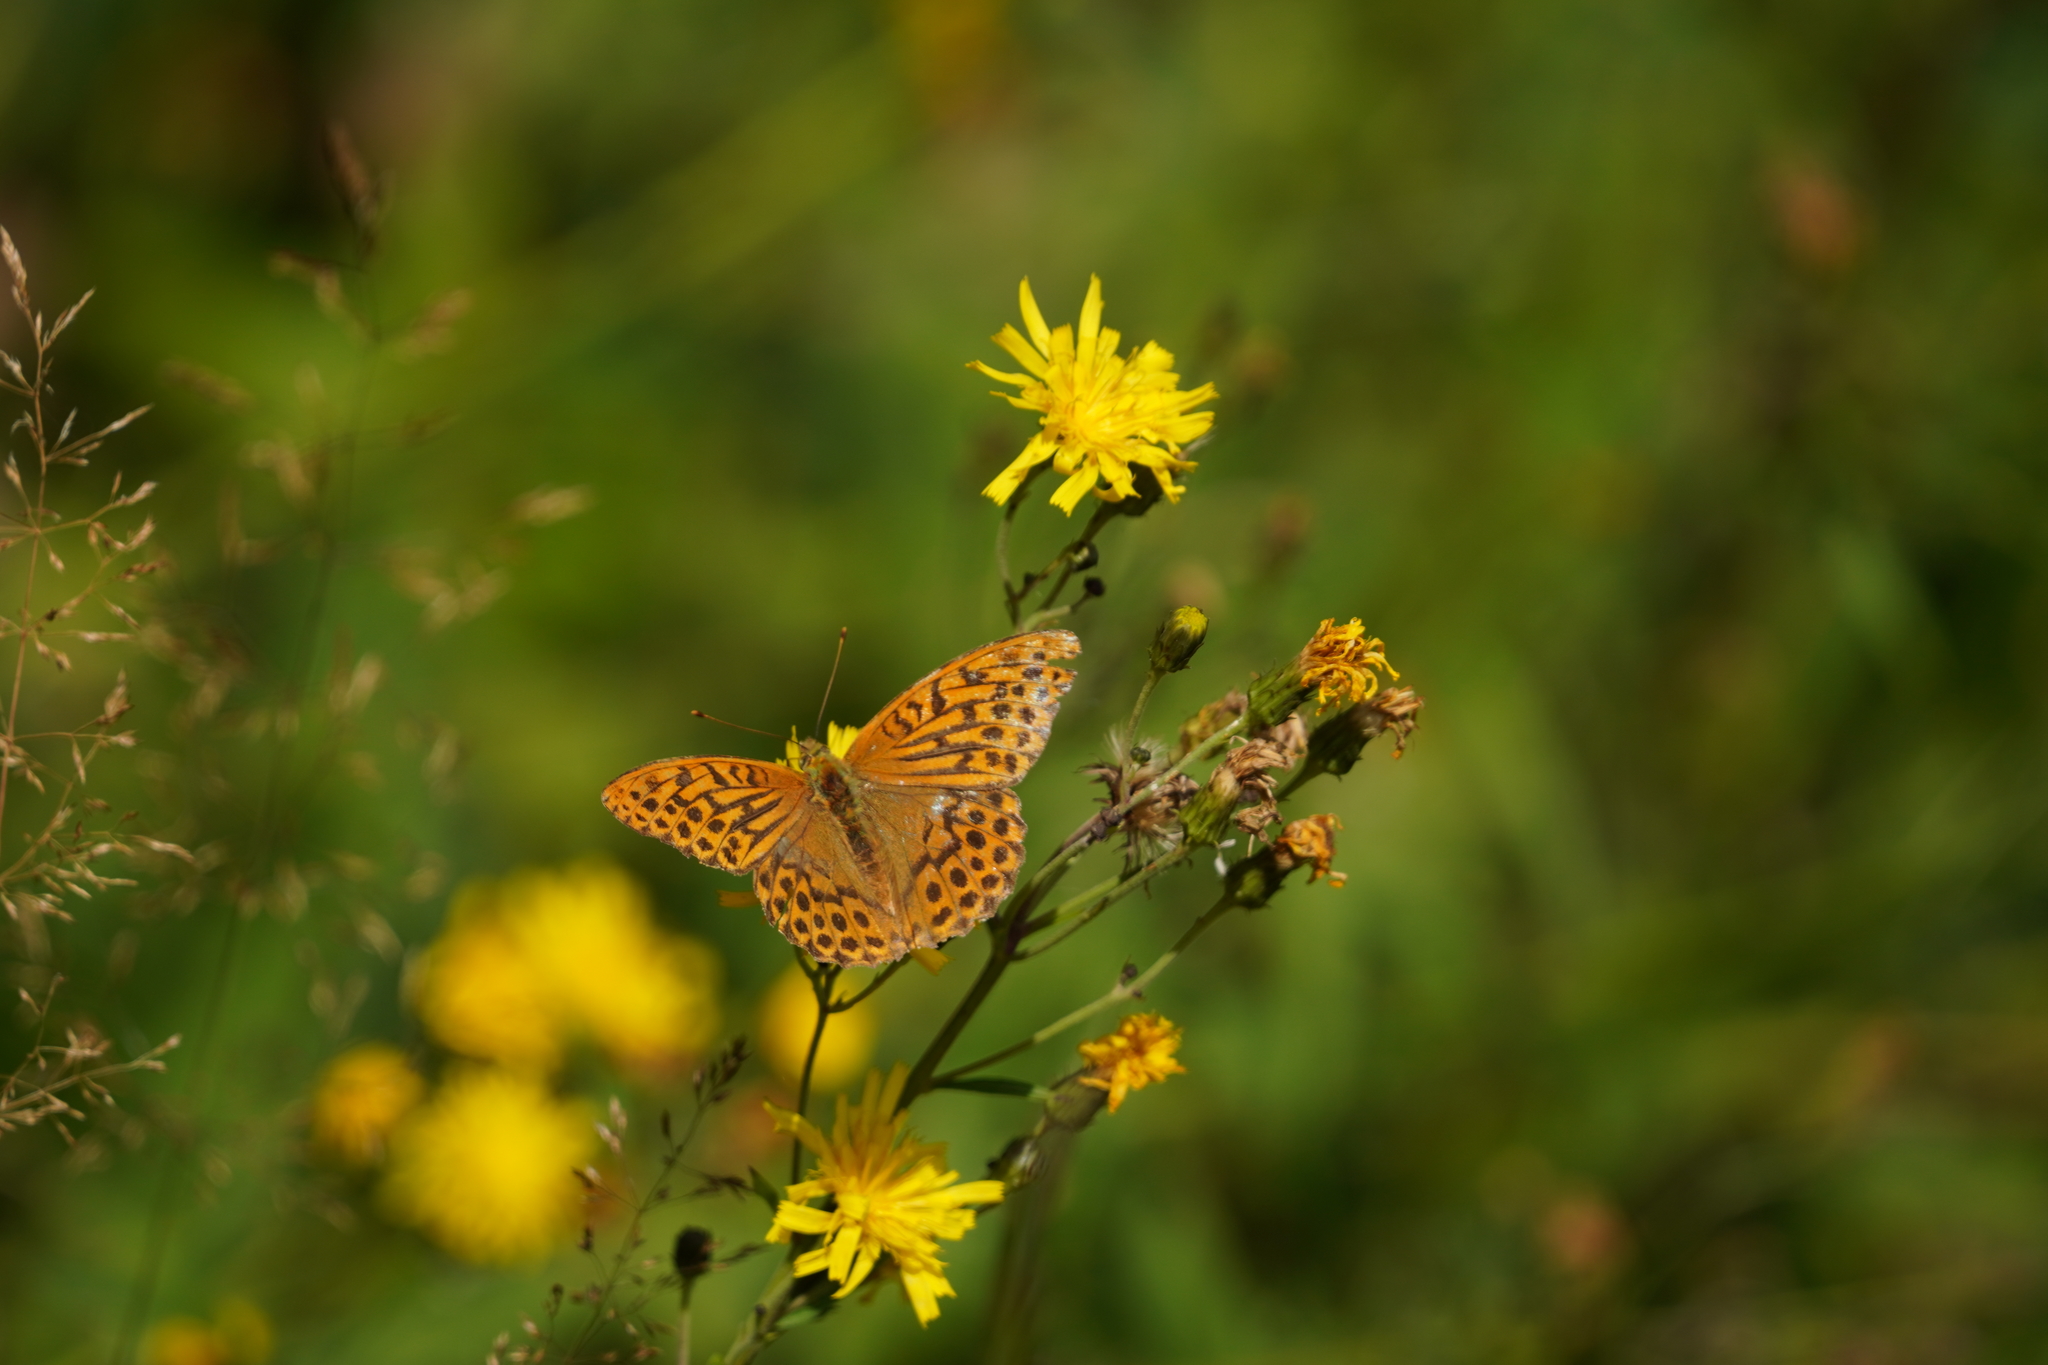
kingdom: Animalia
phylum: Arthropoda
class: Insecta
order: Lepidoptera
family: Nymphalidae
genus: Argynnis
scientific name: Argynnis paphia
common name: Silver-washed fritillary
